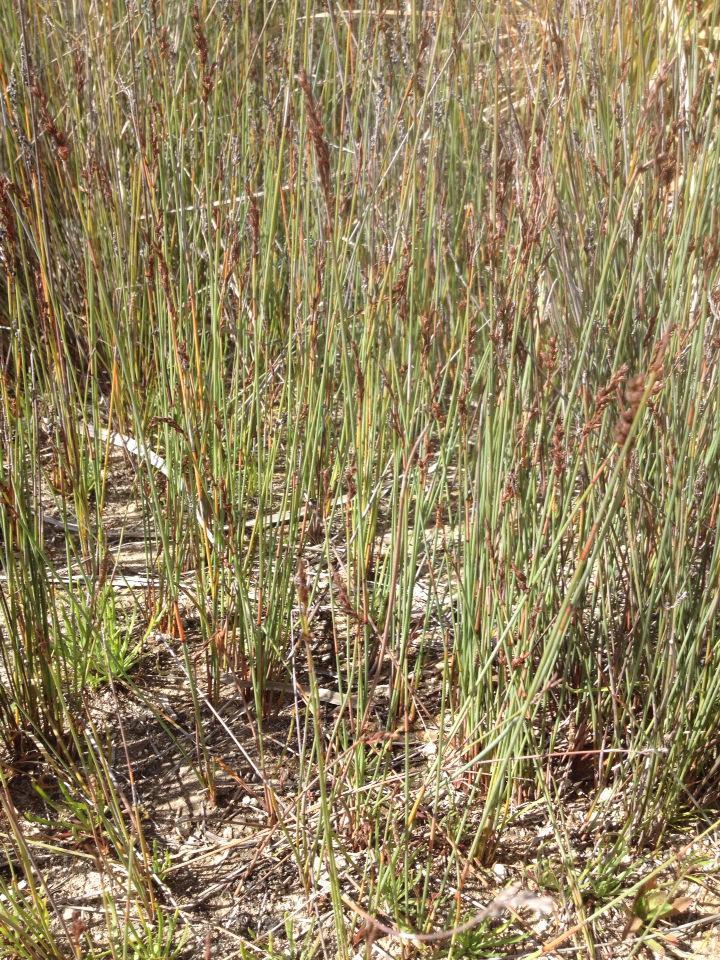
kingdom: Plantae
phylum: Tracheophyta
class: Liliopsida
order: Poales
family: Cyperaceae
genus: Machaerina
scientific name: Machaerina juncea
